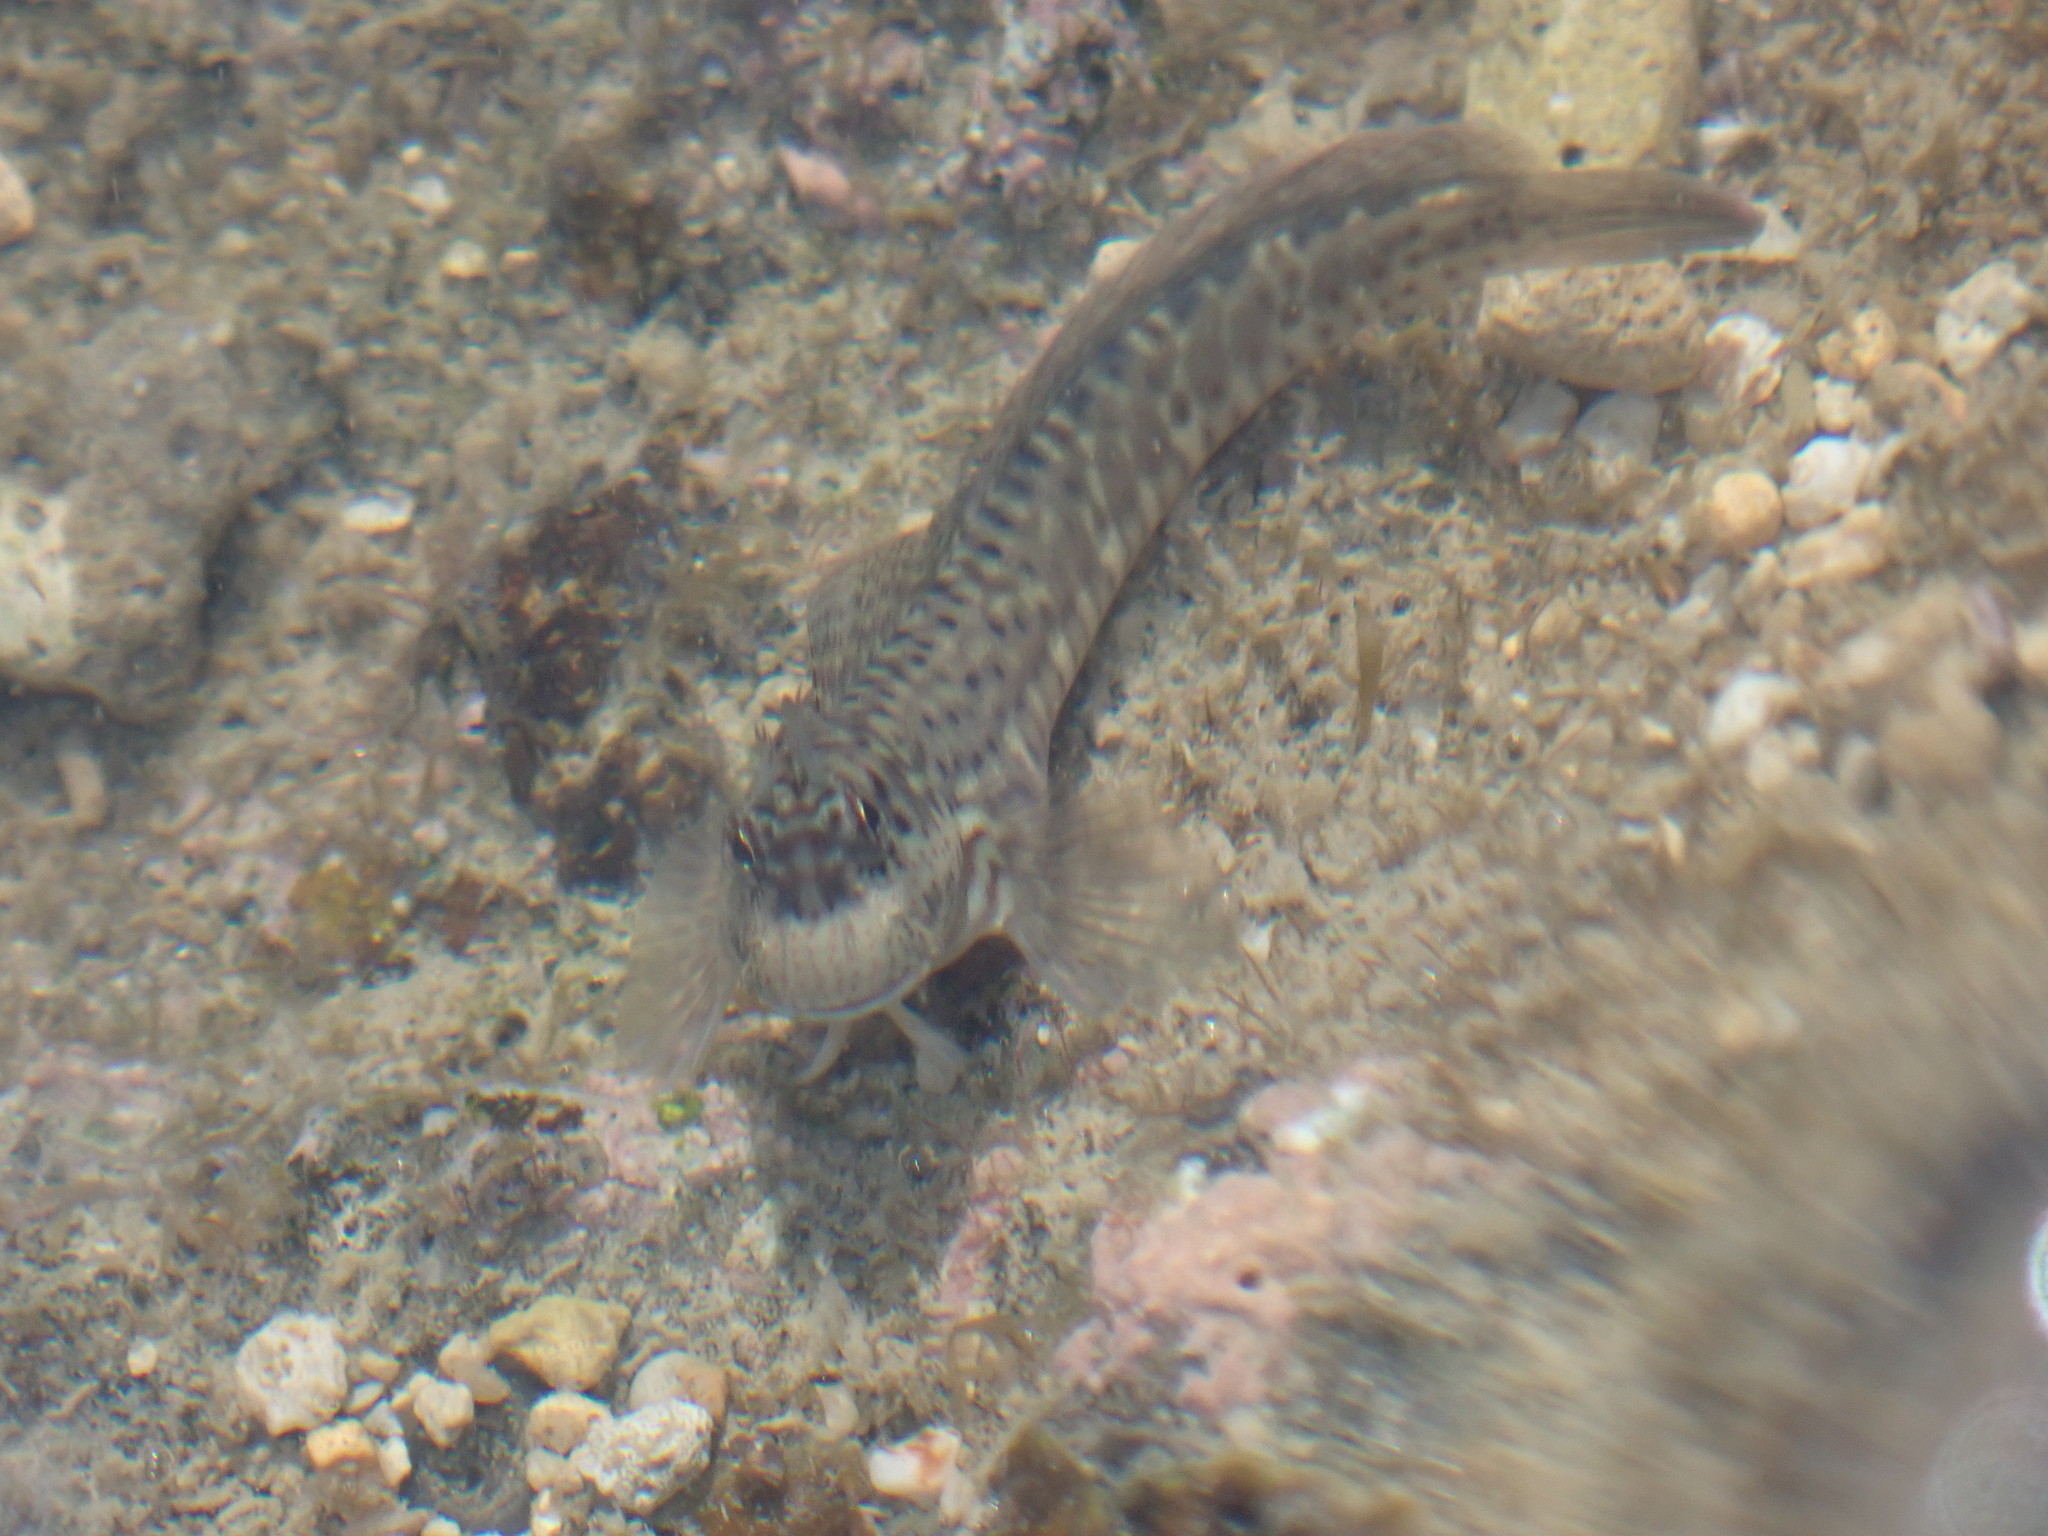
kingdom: Animalia
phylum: Chordata
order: Perciformes
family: Blenniidae
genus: Istiblennius
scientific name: Istiblennius dussumieri
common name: Dussumier's rockskipper
